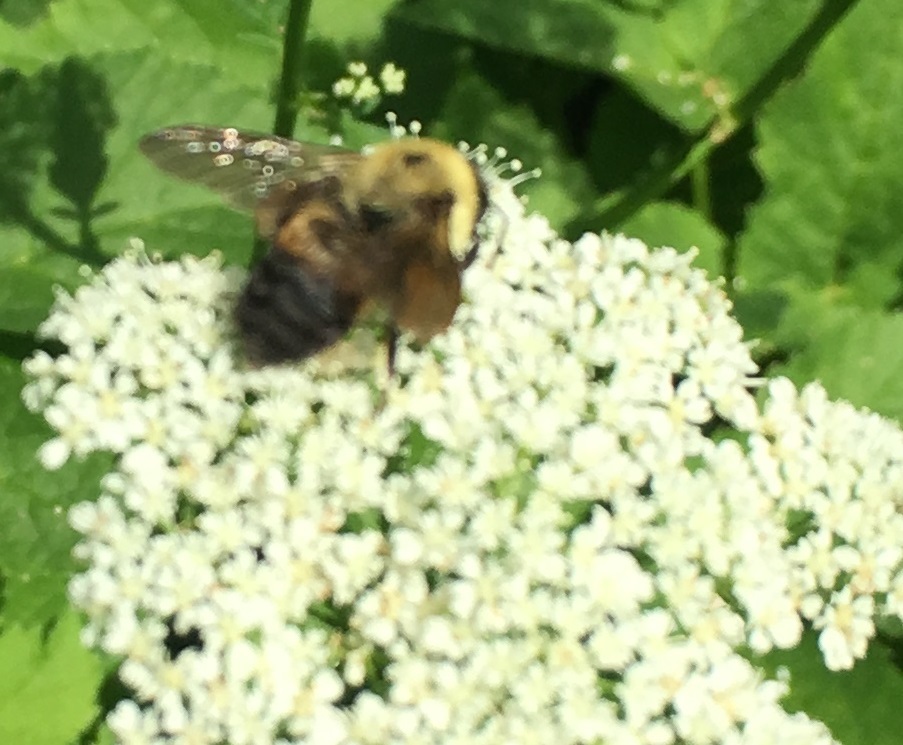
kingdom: Animalia
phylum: Arthropoda
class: Insecta
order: Hymenoptera
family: Apidae
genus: Bombus
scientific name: Bombus griseocollis
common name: Brown-belted bumble bee
